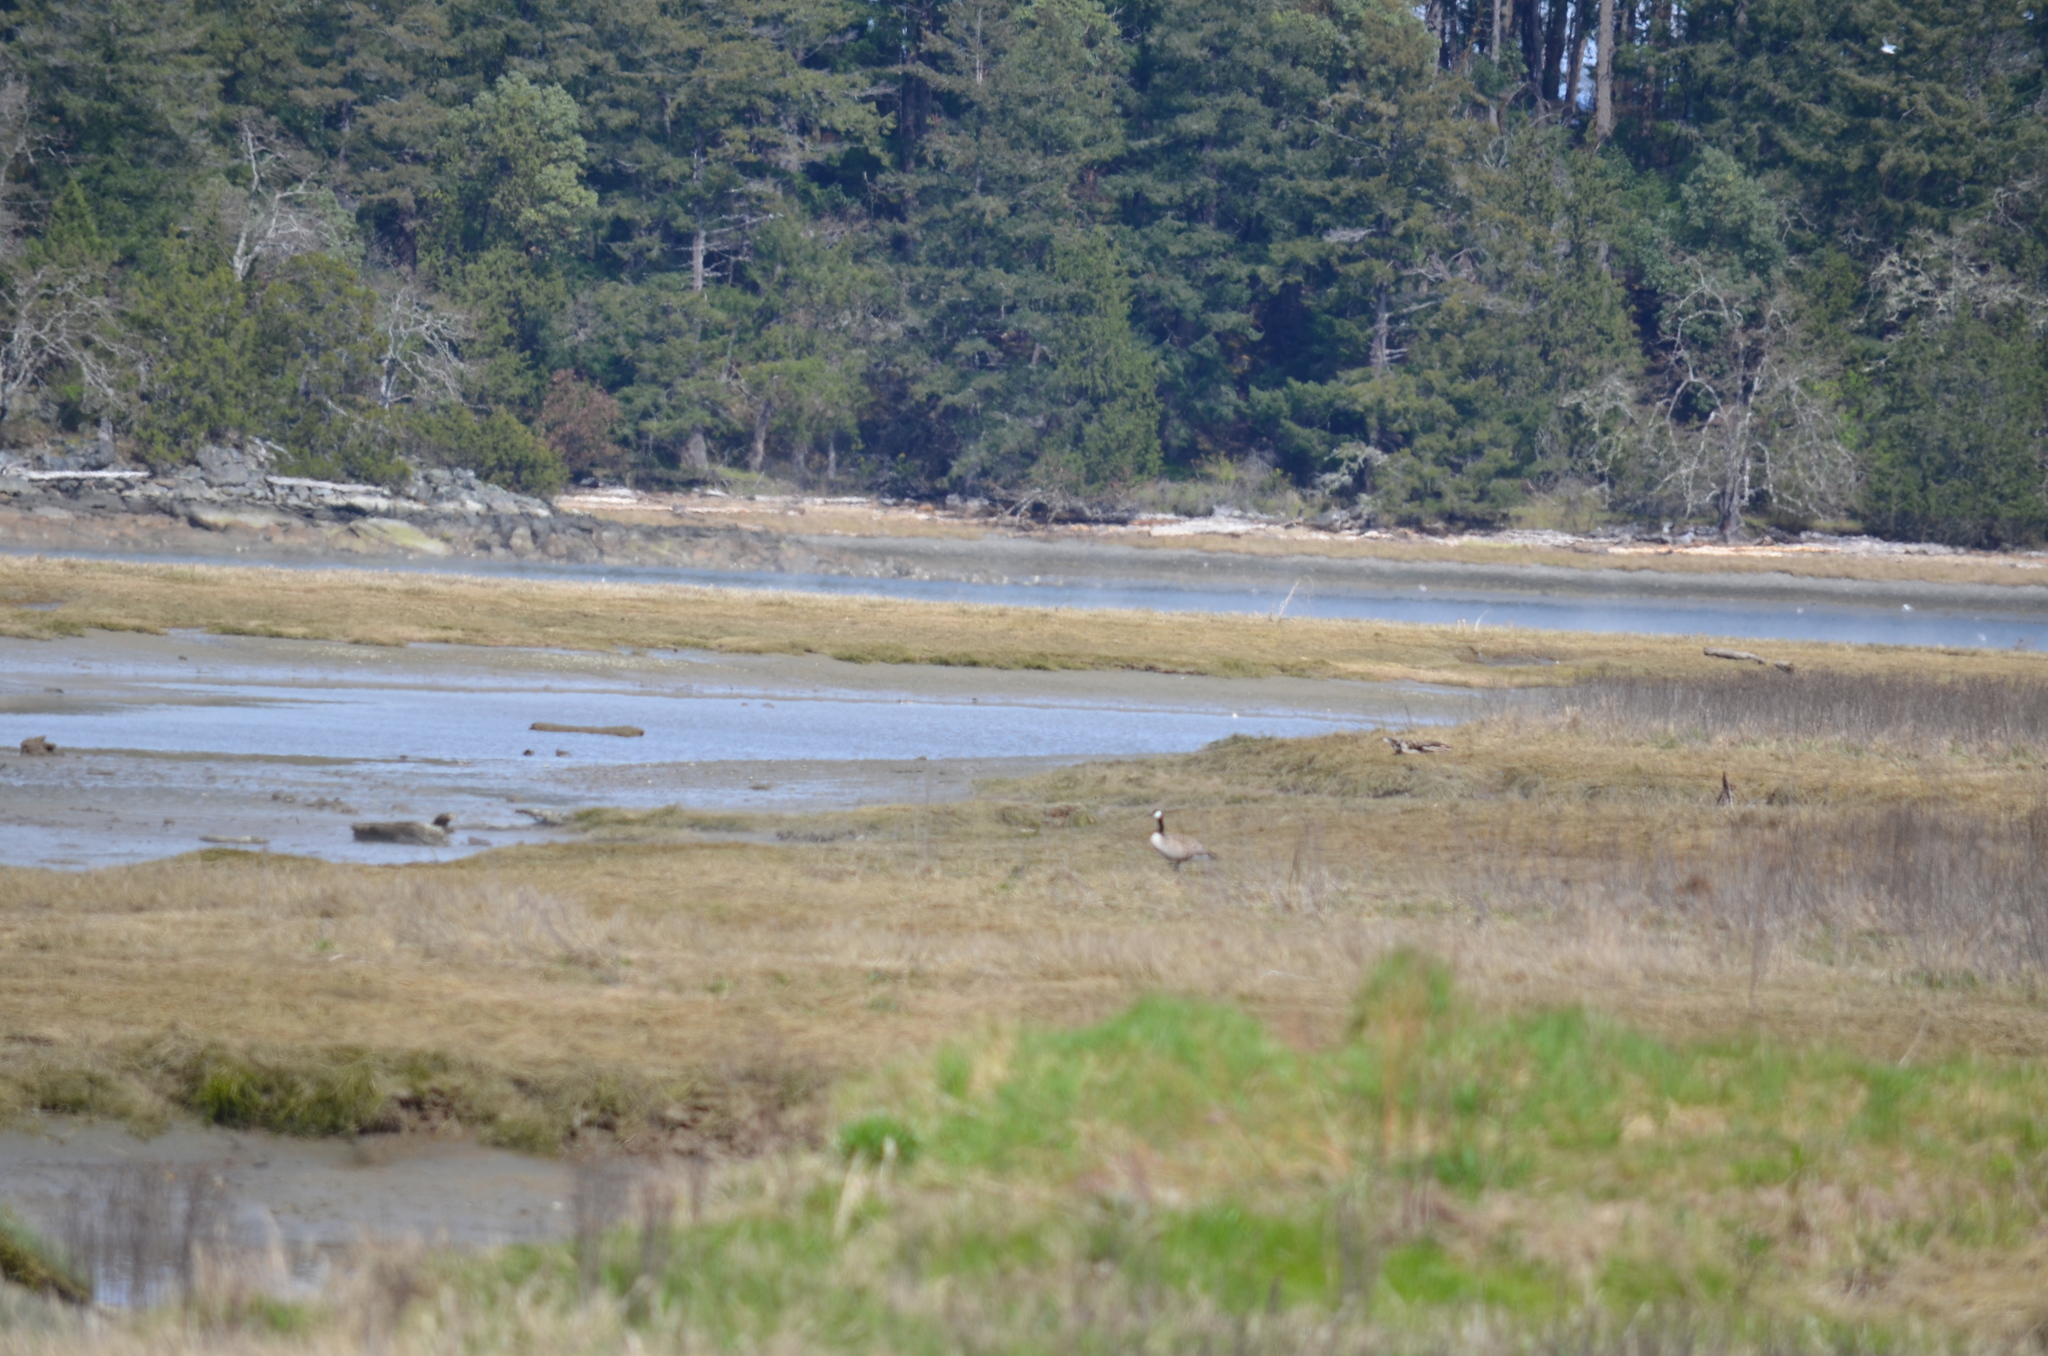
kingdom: Animalia
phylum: Chordata
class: Aves
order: Anseriformes
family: Anatidae
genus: Branta
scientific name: Branta canadensis
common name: Canada goose
